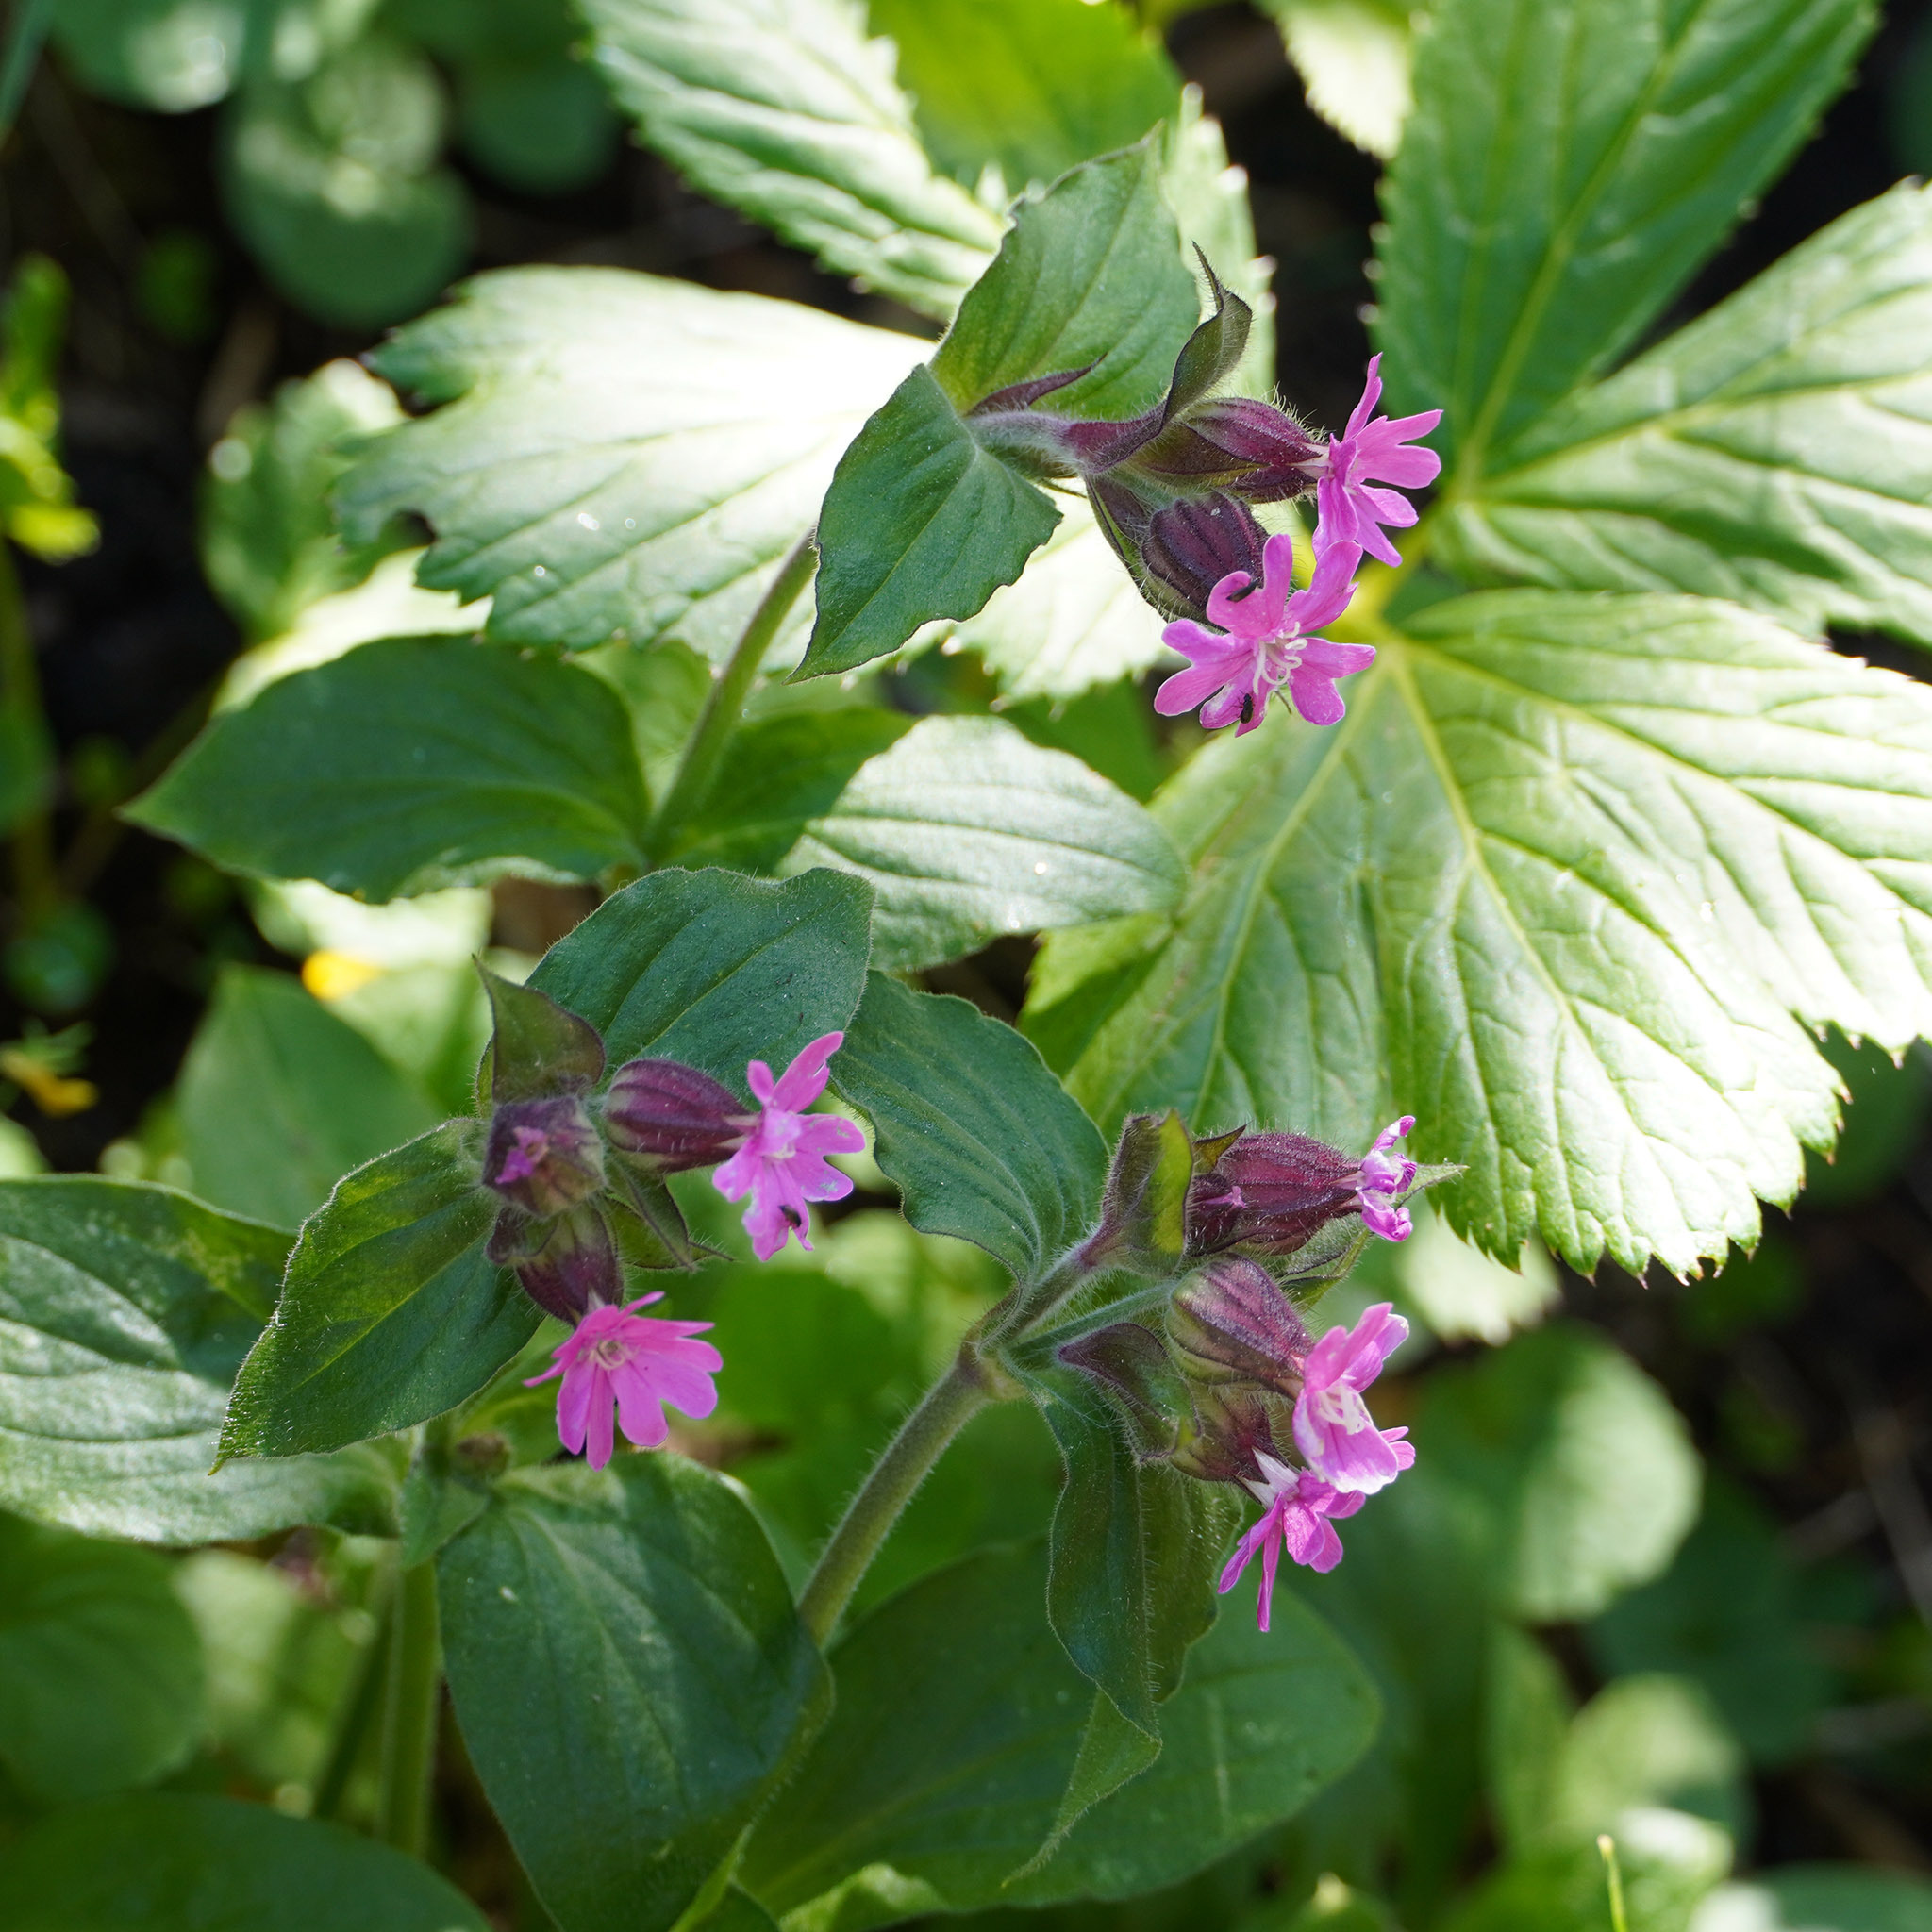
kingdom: Plantae
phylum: Tracheophyta
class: Magnoliopsida
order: Caryophyllales
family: Caryophyllaceae
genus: Silene
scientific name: Silene dioica
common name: Red campion
